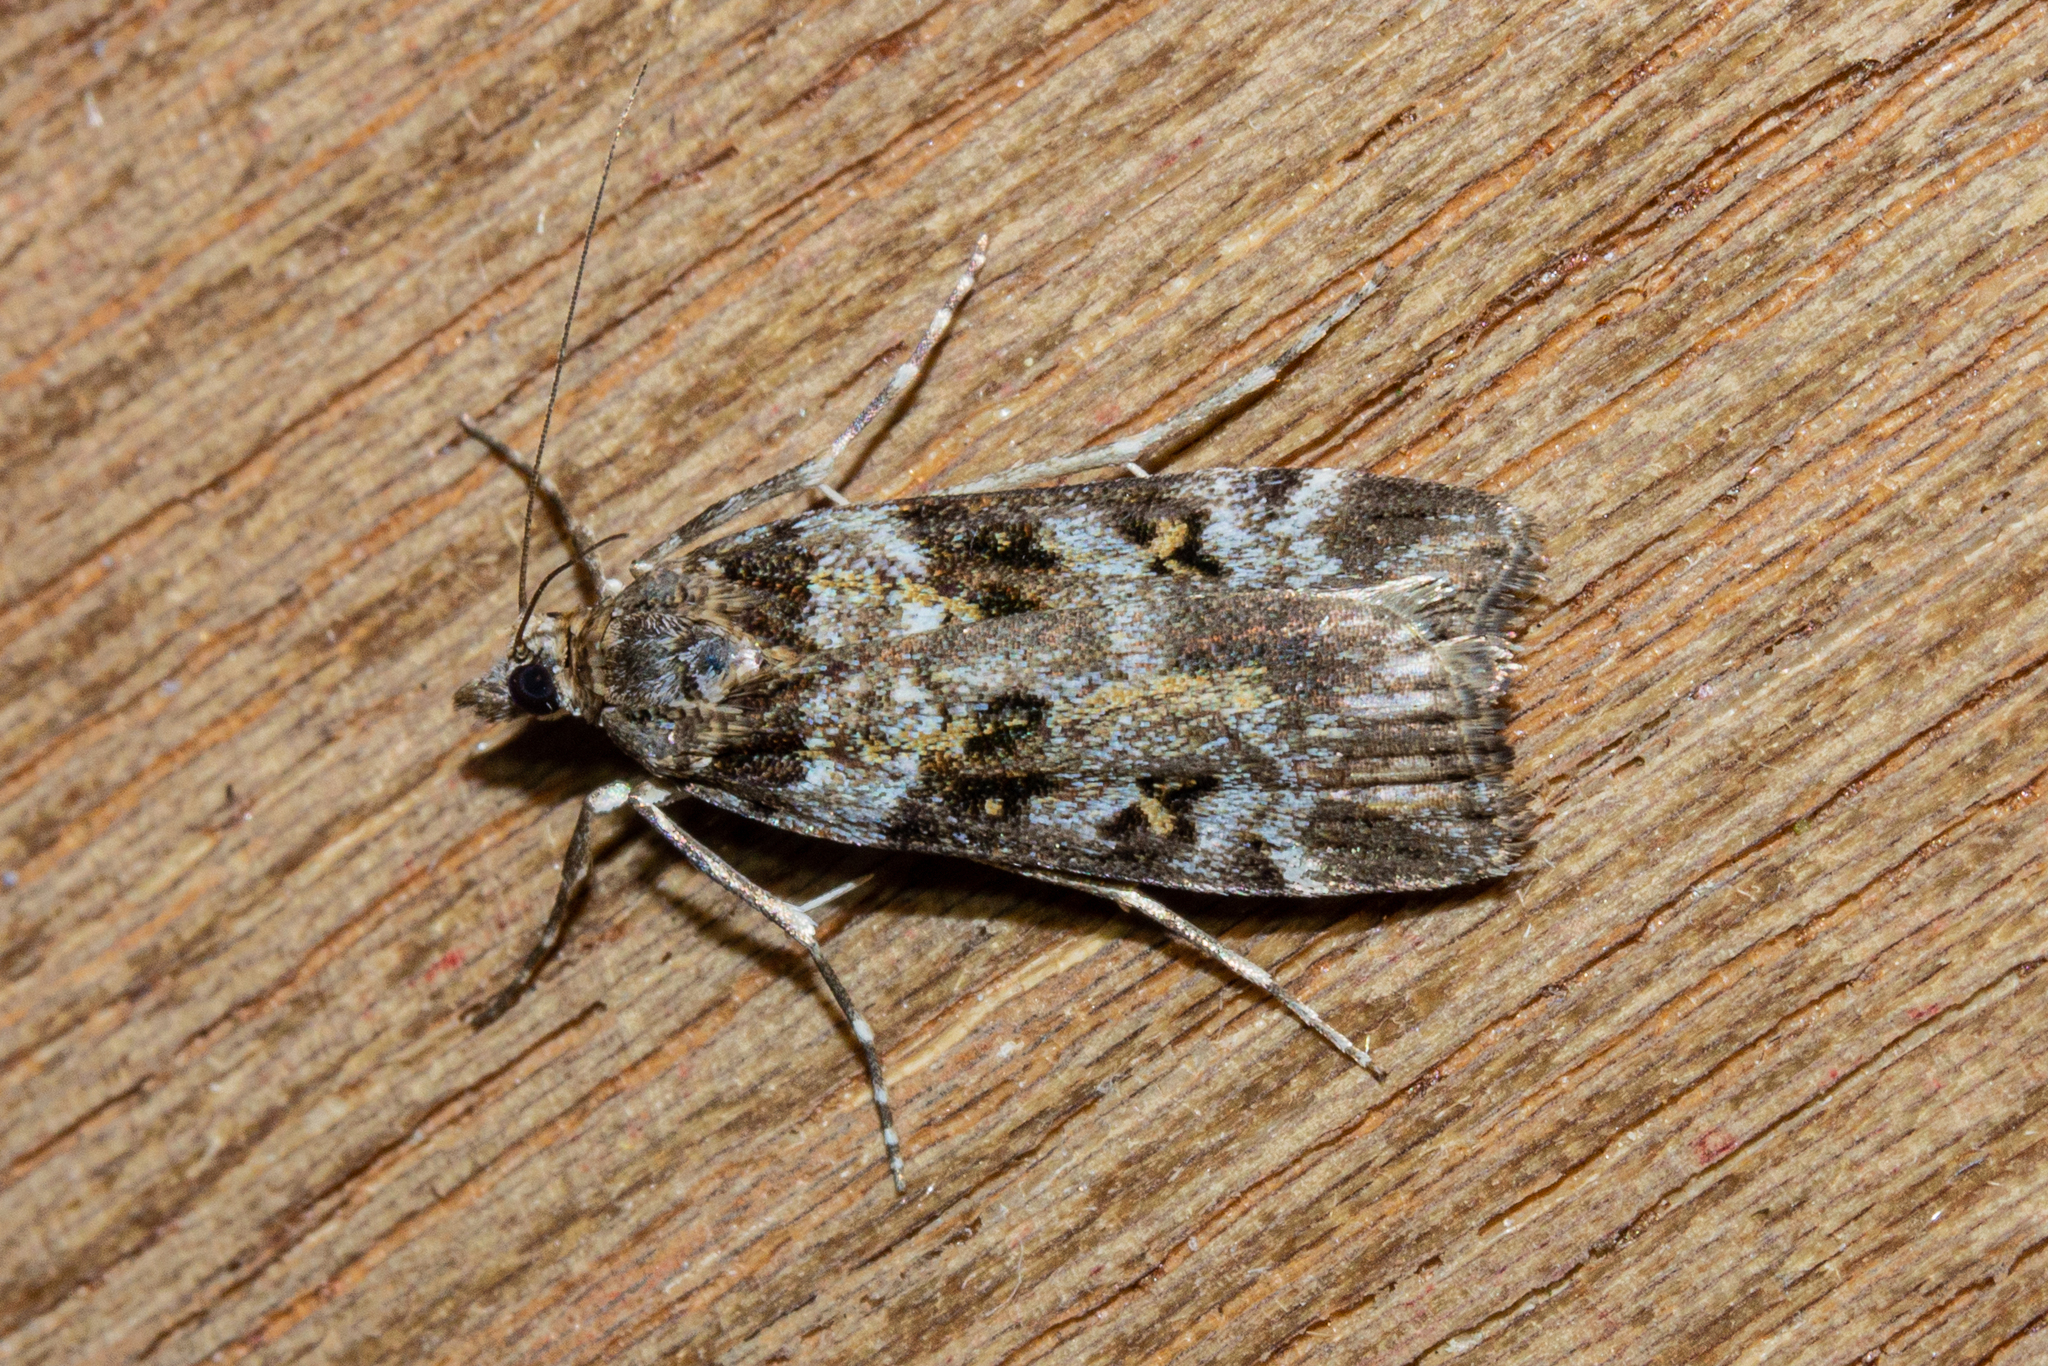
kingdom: Animalia
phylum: Arthropoda
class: Insecta
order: Lepidoptera
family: Crambidae
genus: Eudonia
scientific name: Eudonia diphtheralis
